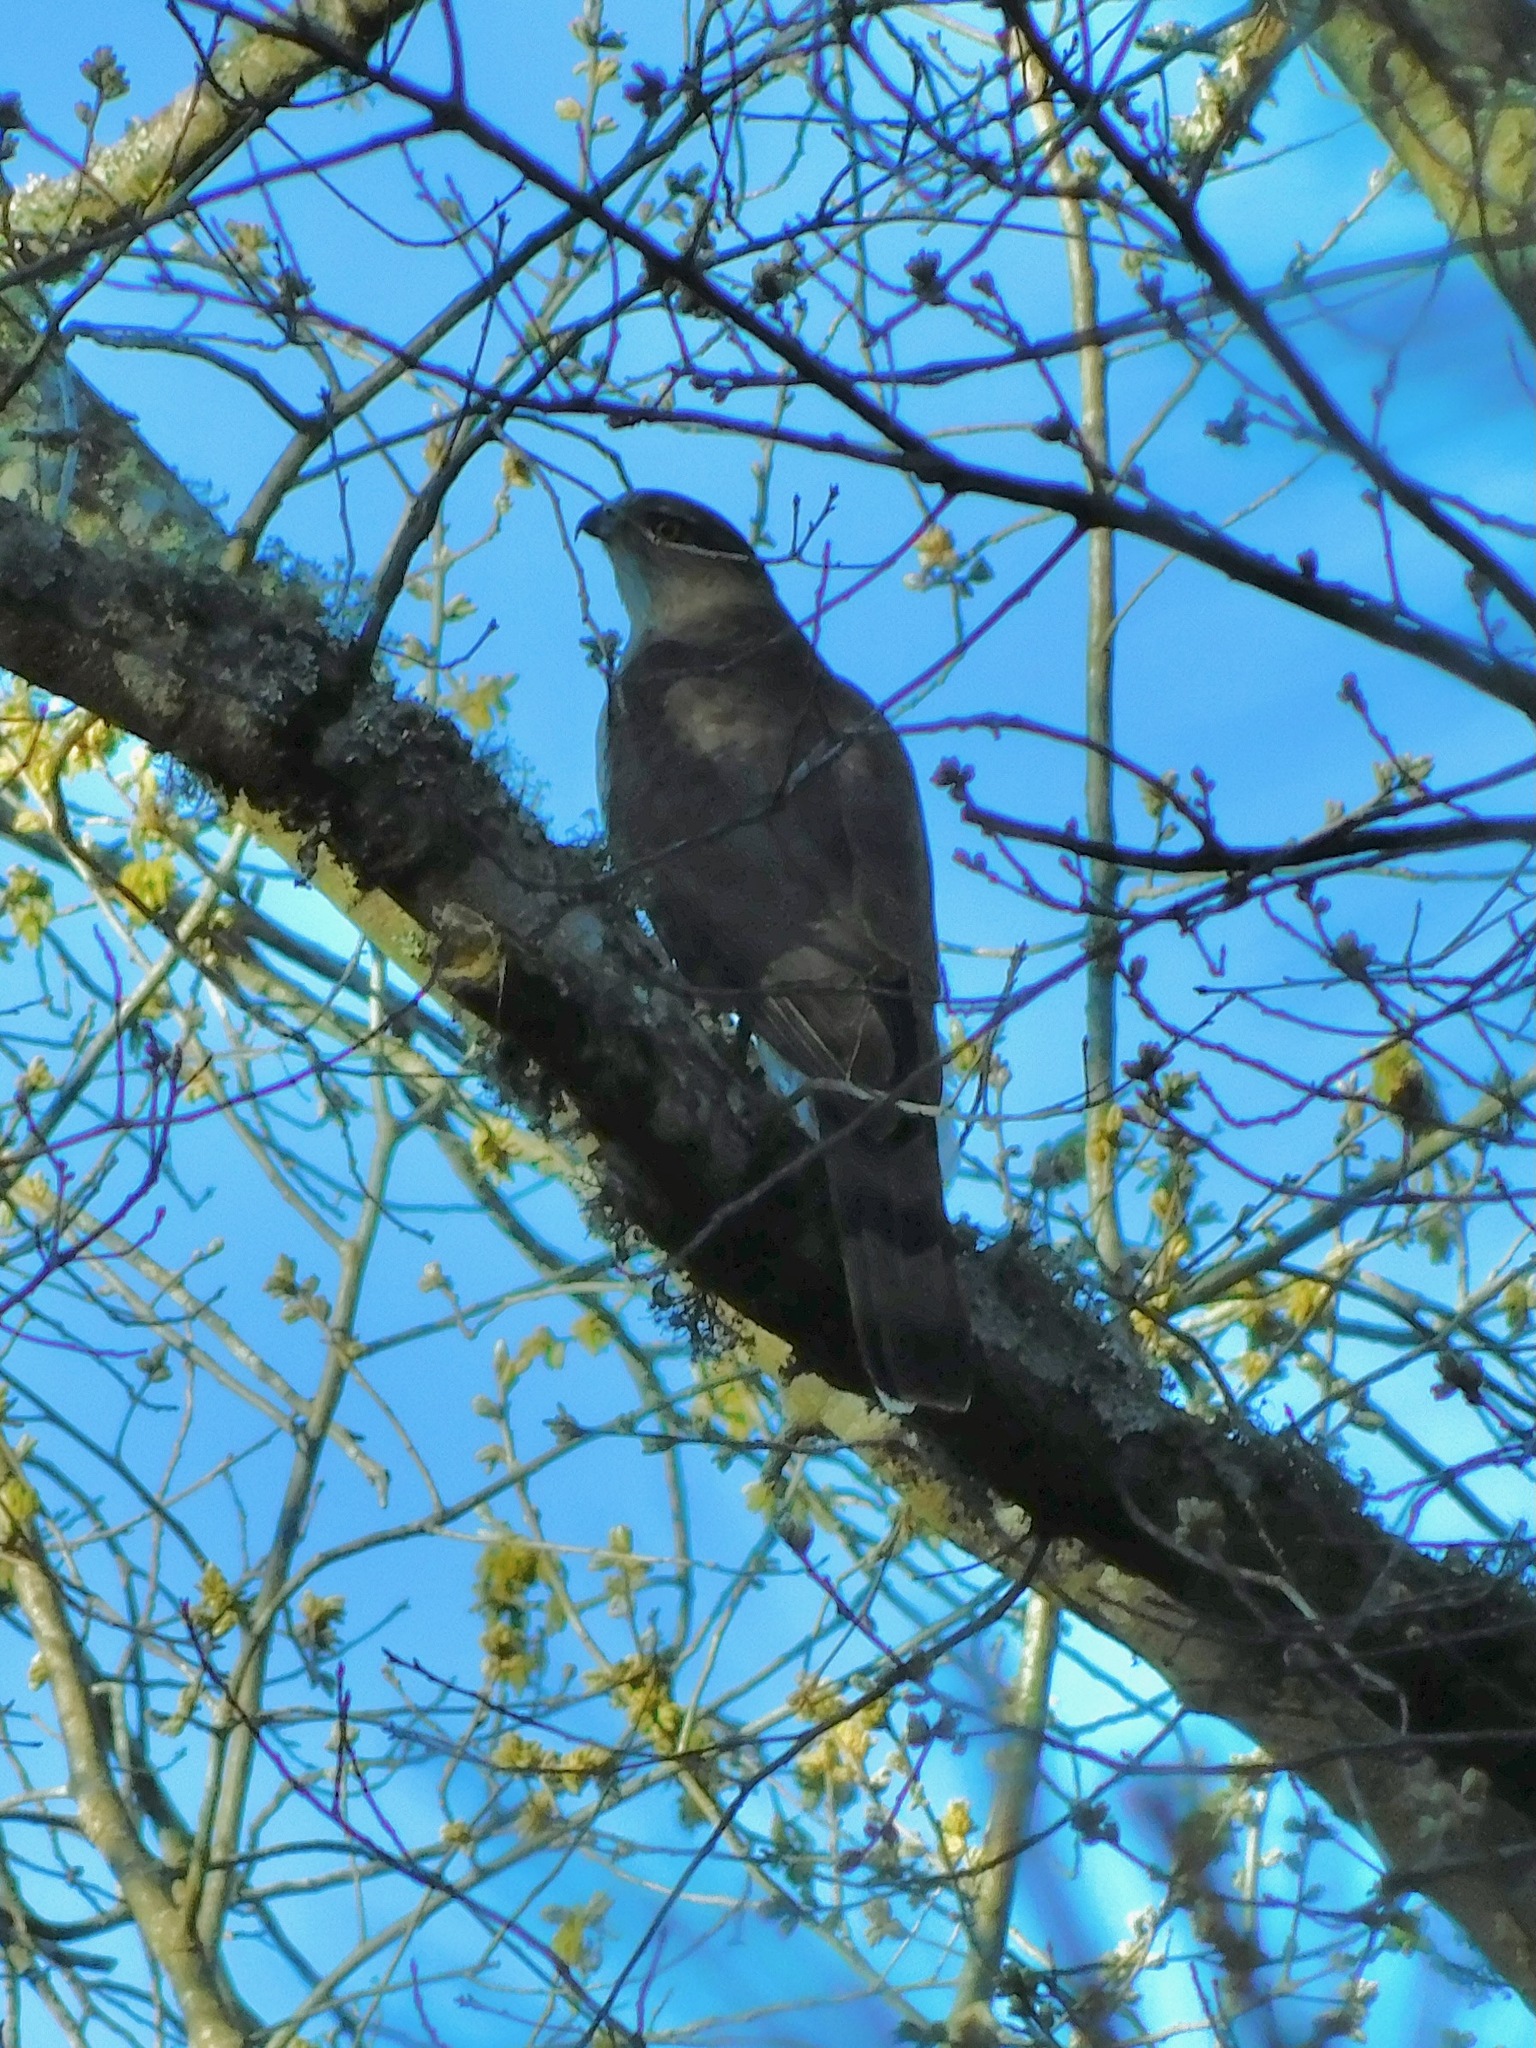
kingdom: Animalia
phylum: Chordata
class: Aves
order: Accipitriformes
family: Accipitridae
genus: Accipiter
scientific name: Accipiter cooperii
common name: Cooper's hawk
